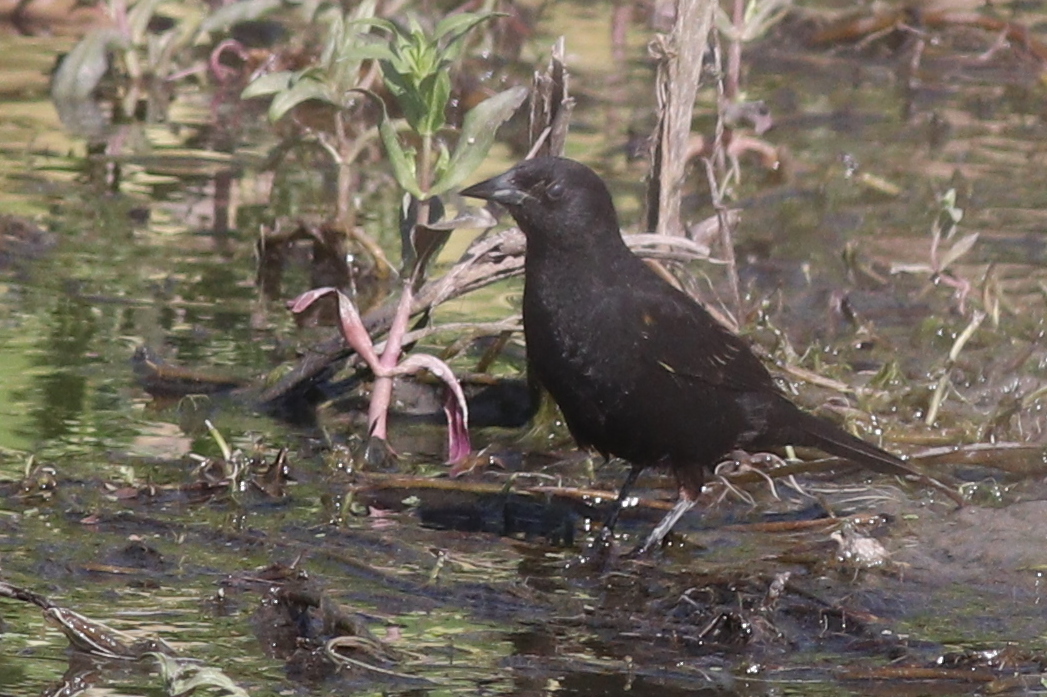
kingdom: Animalia
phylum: Chordata
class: Aves
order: Passeriformes
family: Icteridae
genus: Agelasticus
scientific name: Agelasticus thilius
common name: Yellow-winged blackbird
